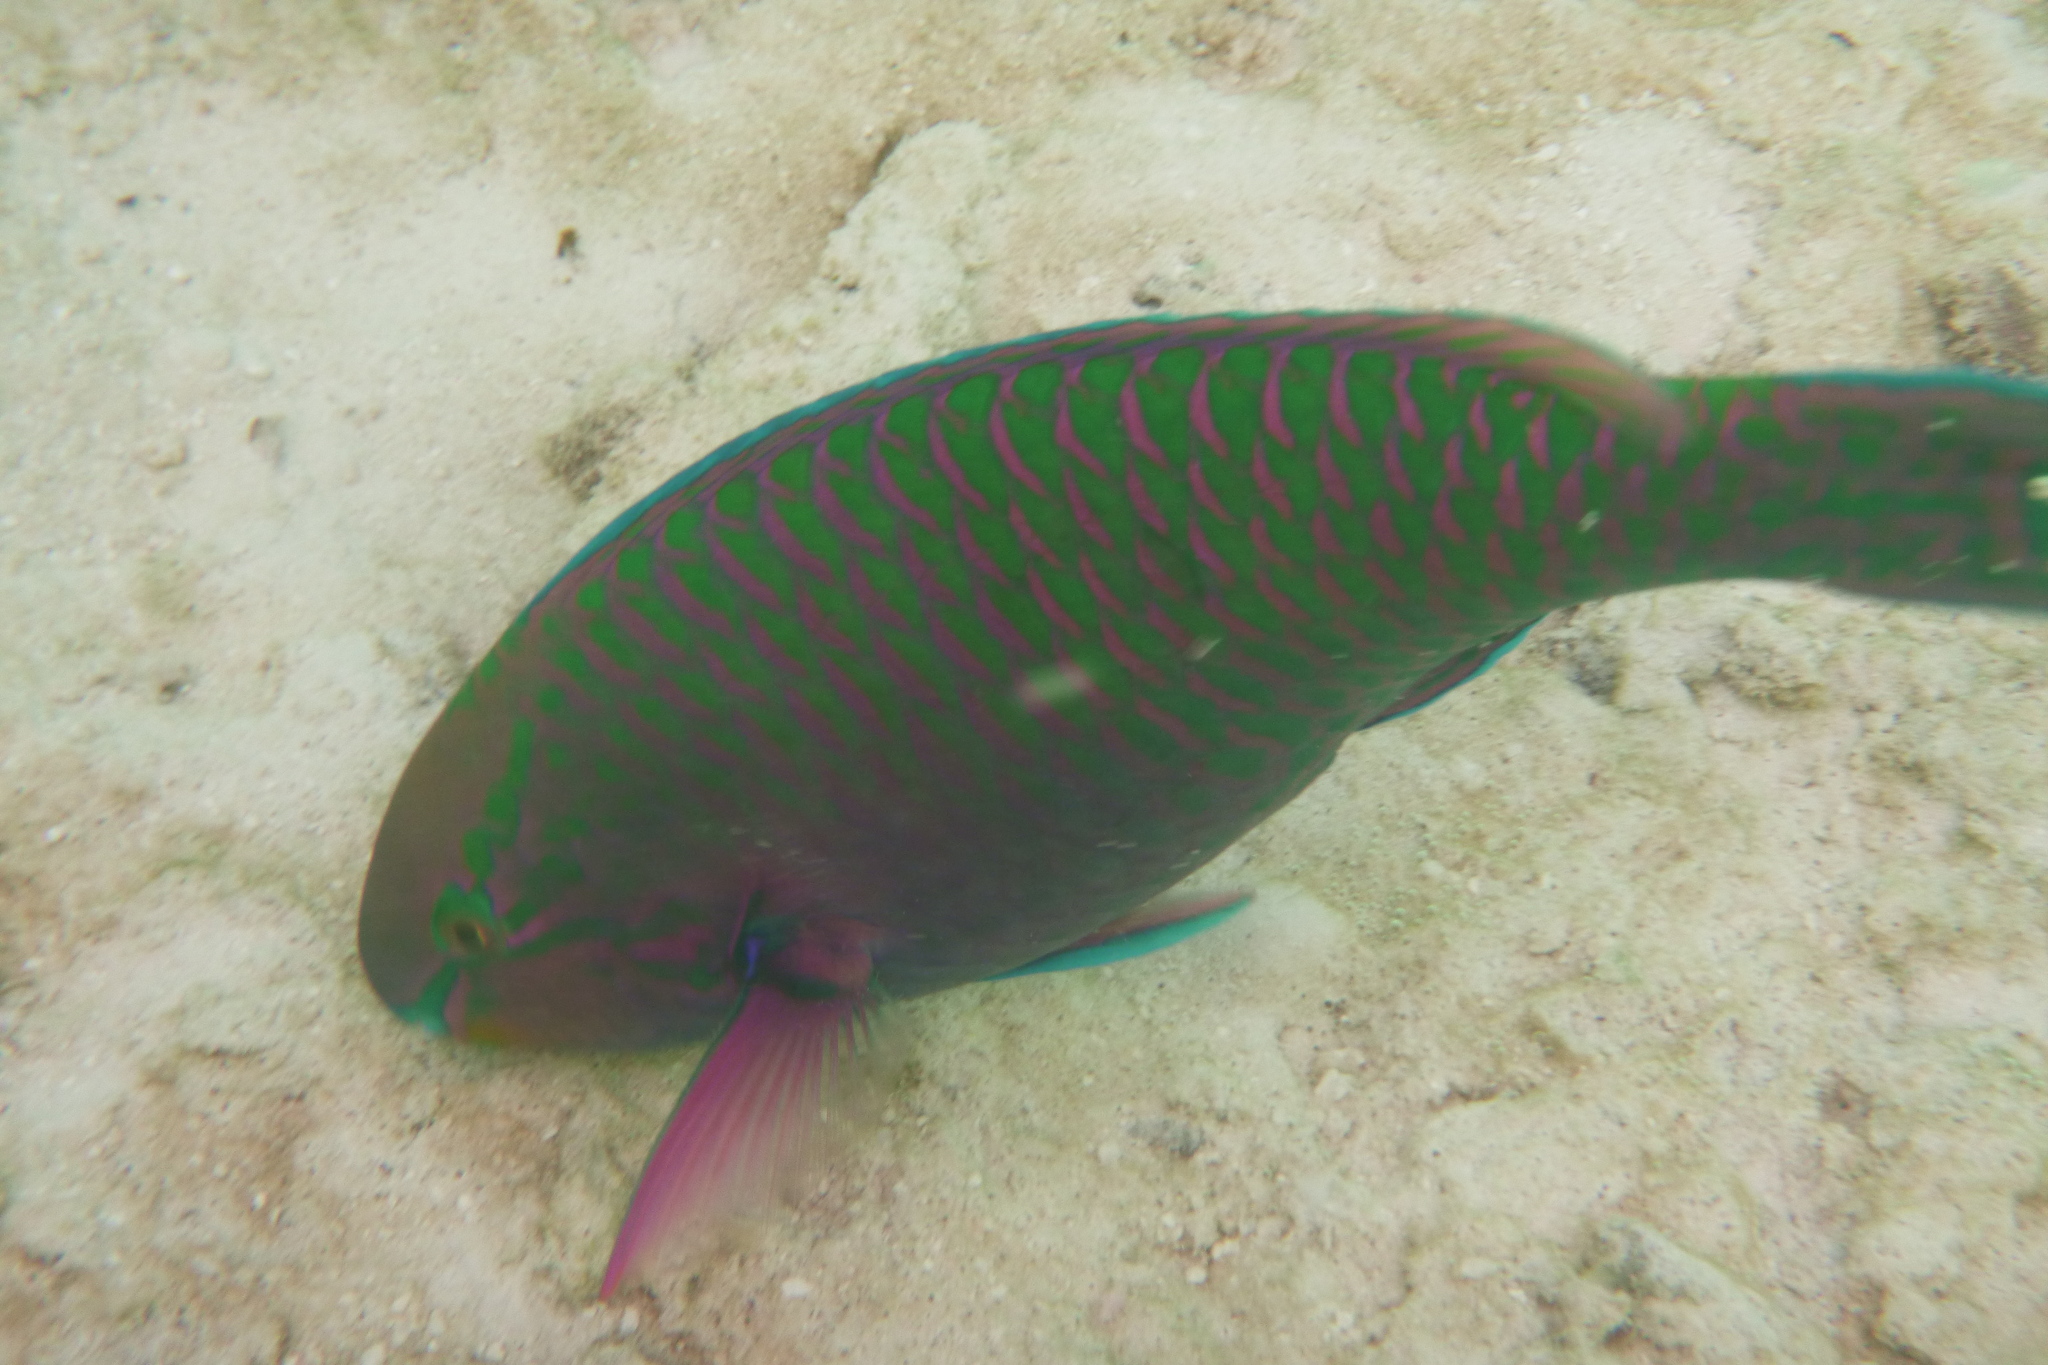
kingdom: Animalia
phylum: Chordata
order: Perciformes
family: Scaridae
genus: Scarus
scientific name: Scarus russelii
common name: Eclipse parrotfish
